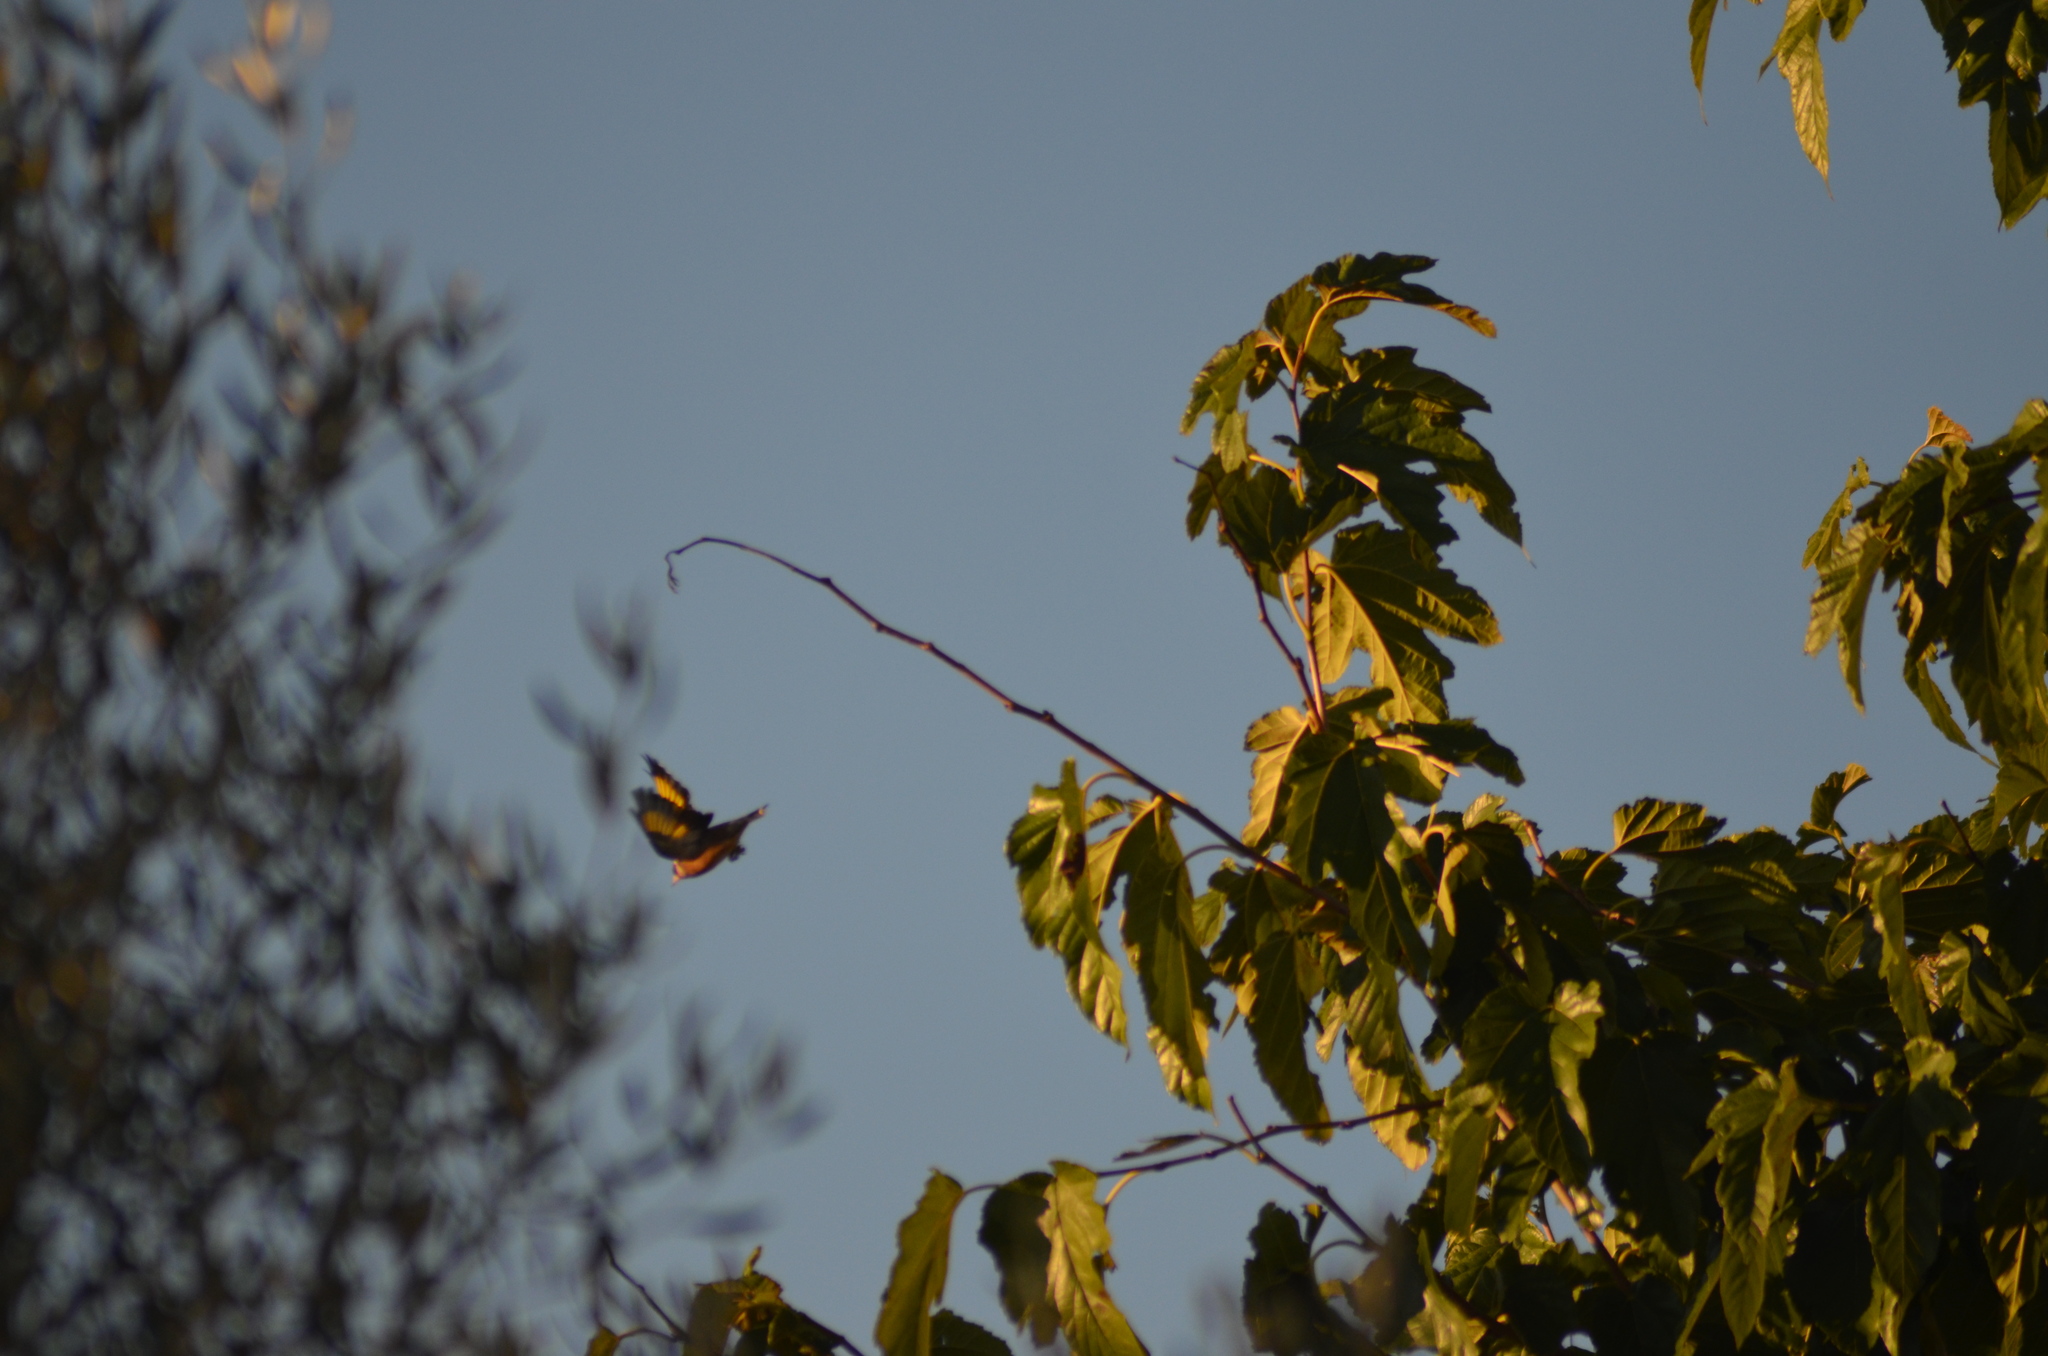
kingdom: Animalia
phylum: Chordata
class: Aves
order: Passeriformes
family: Fringillidae
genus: Carduelis
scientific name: Carduelis carduelis
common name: European goldfinch
